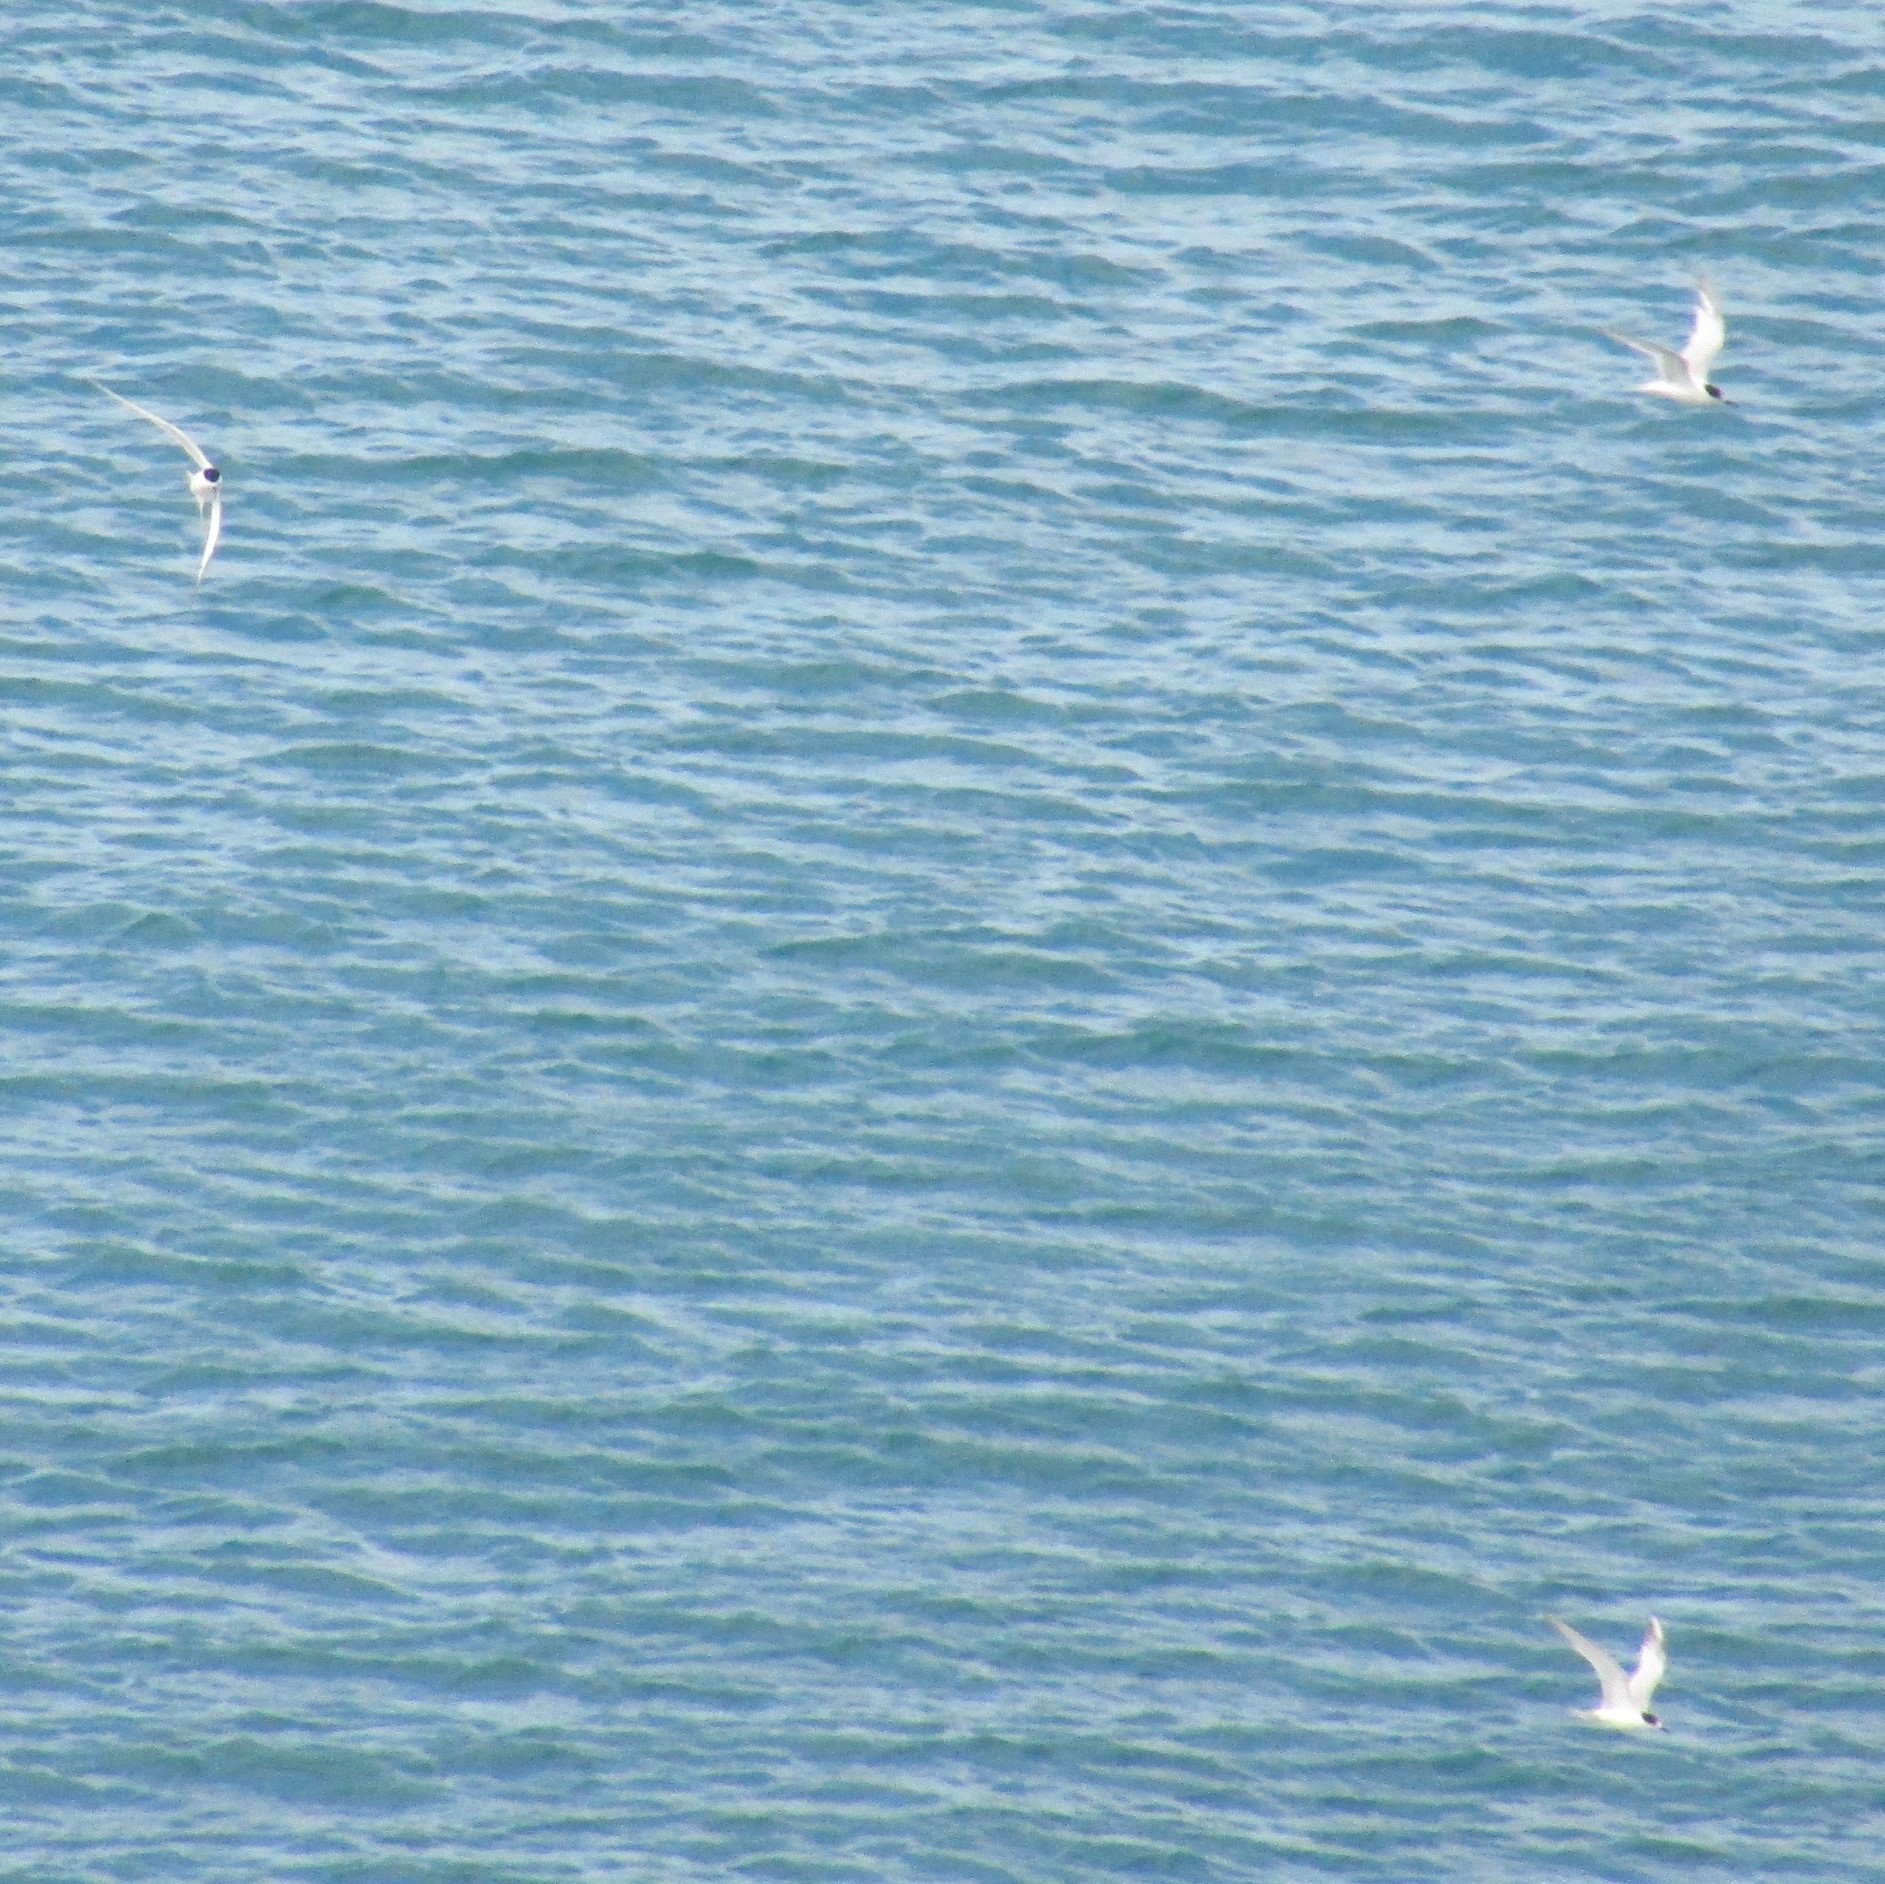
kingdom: Animalia
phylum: Chordata
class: Aves
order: Charadriiformes
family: Laridae
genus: Sterna
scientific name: Sterna striata
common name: White-fronted tern
